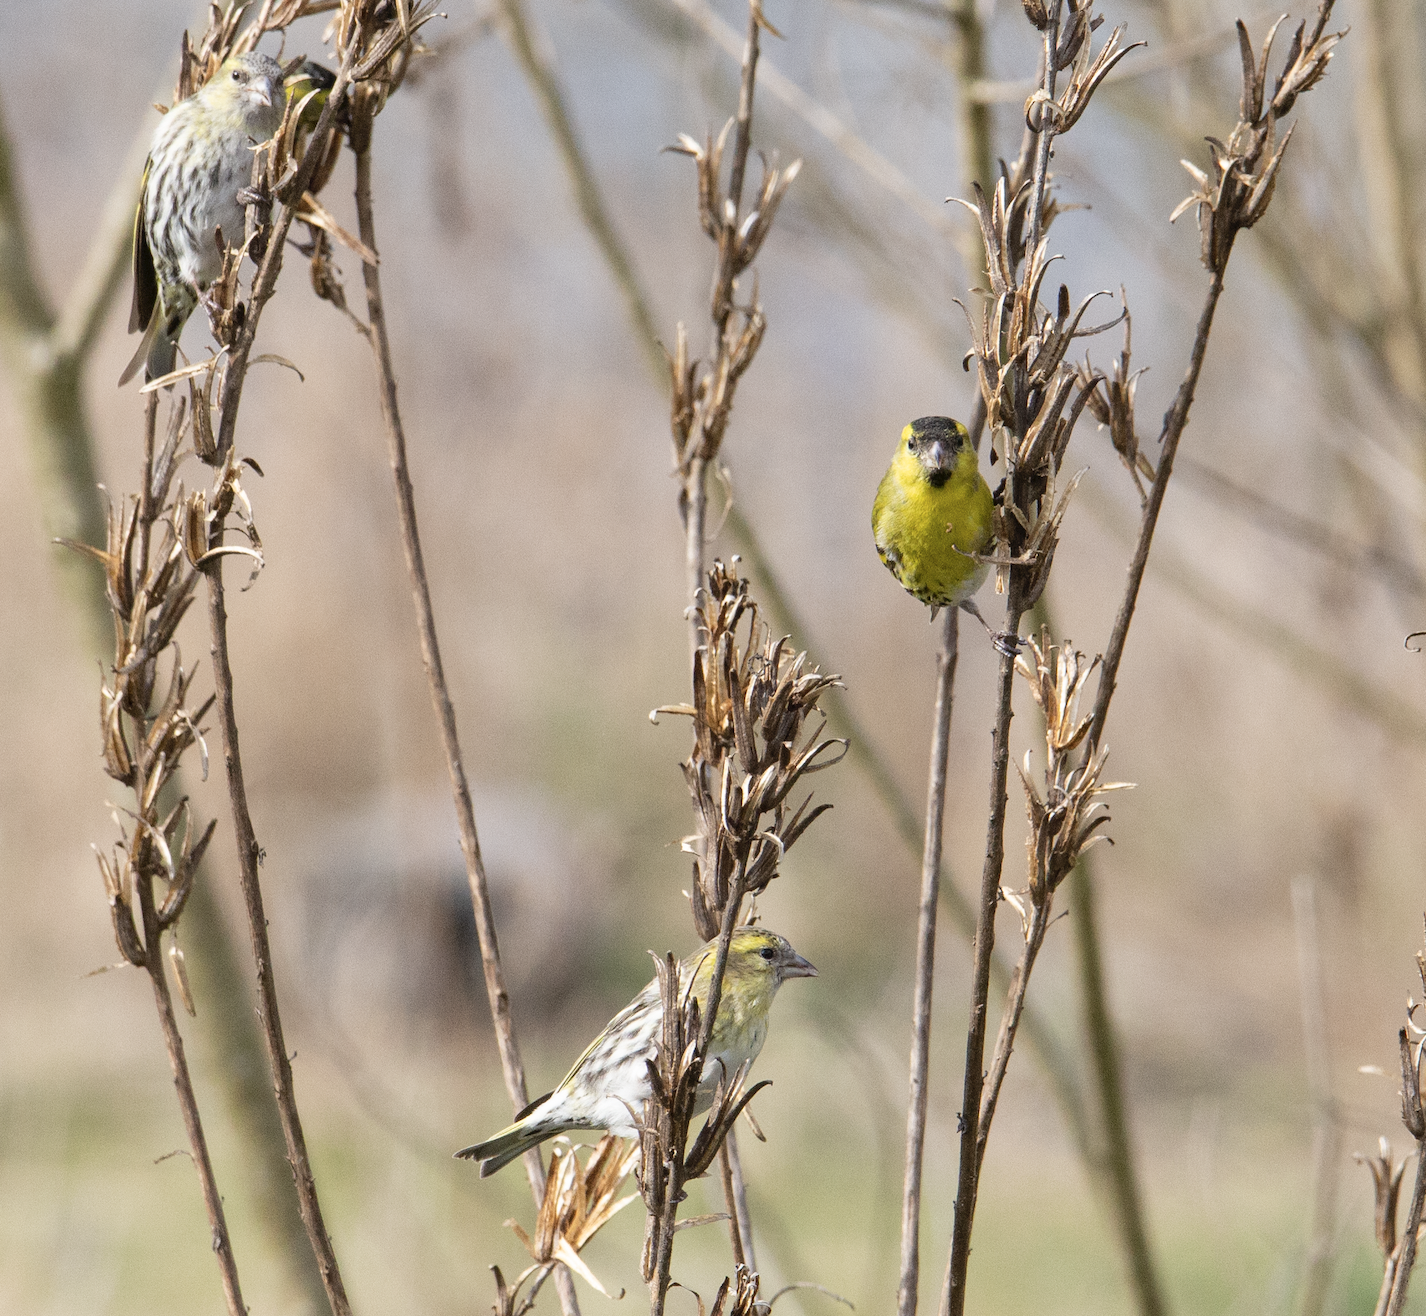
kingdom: Animalia
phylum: Chordata
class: Aves
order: Passeriformes
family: Fringillidae
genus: Spinus
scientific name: Spinus spinus
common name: Eurasian siskin
